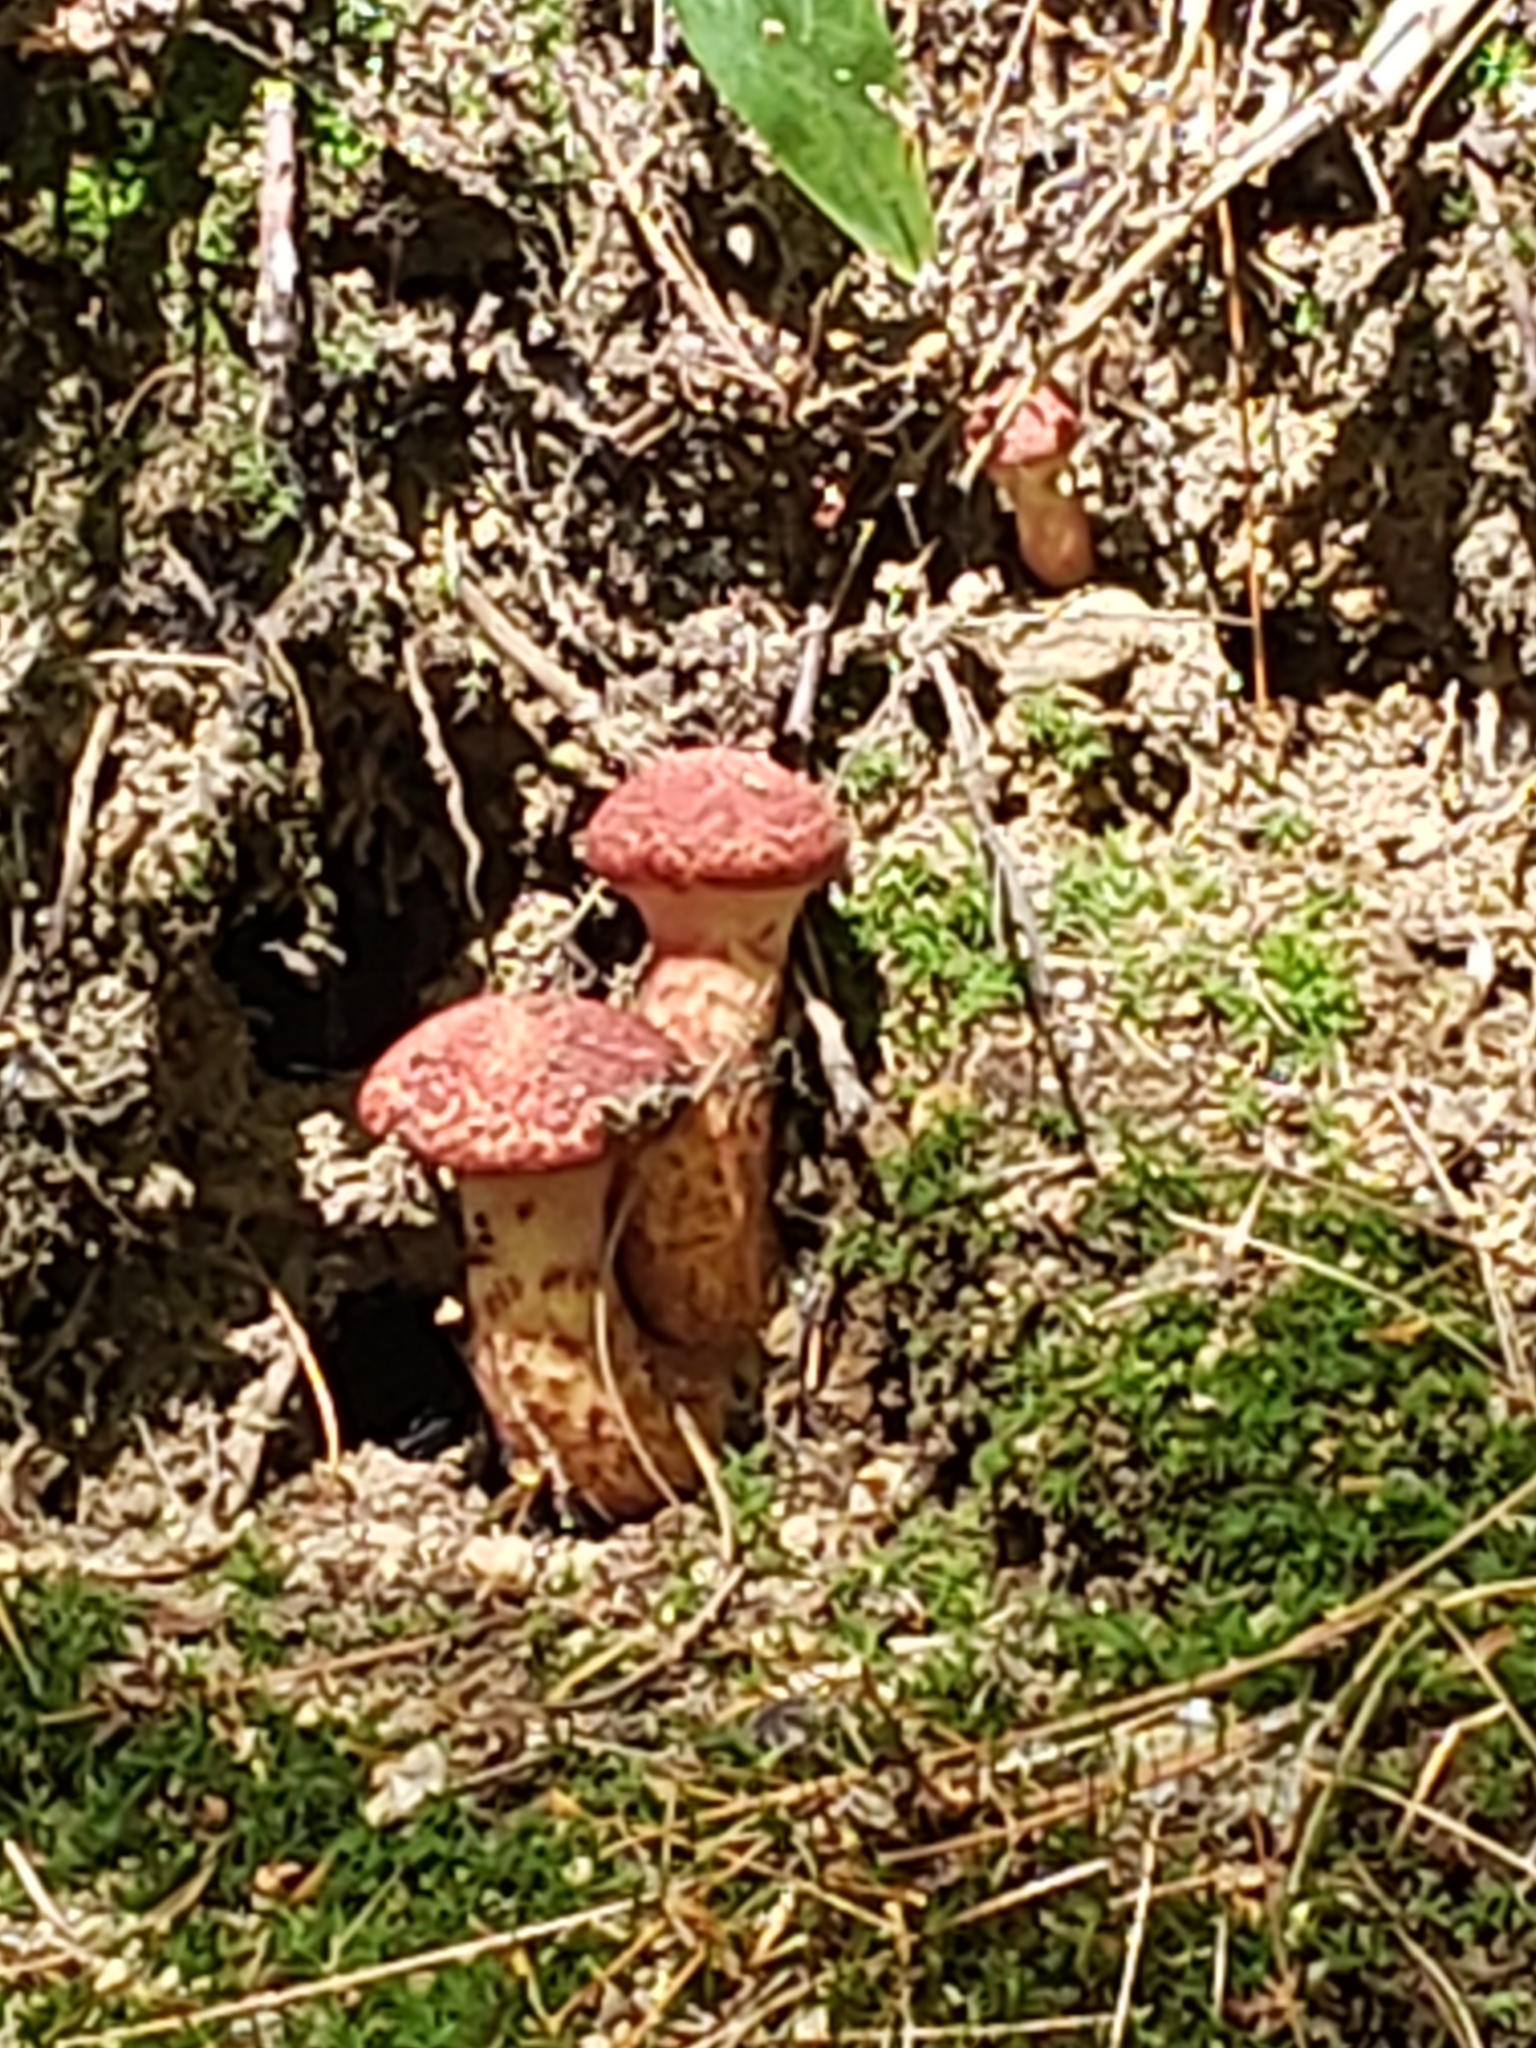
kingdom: Fungi
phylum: Basidiomycota
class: Agaricomycetes
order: Boletales
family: Suillaceae
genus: Suillus
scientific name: Suillus spraguei
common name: Painted suillus
